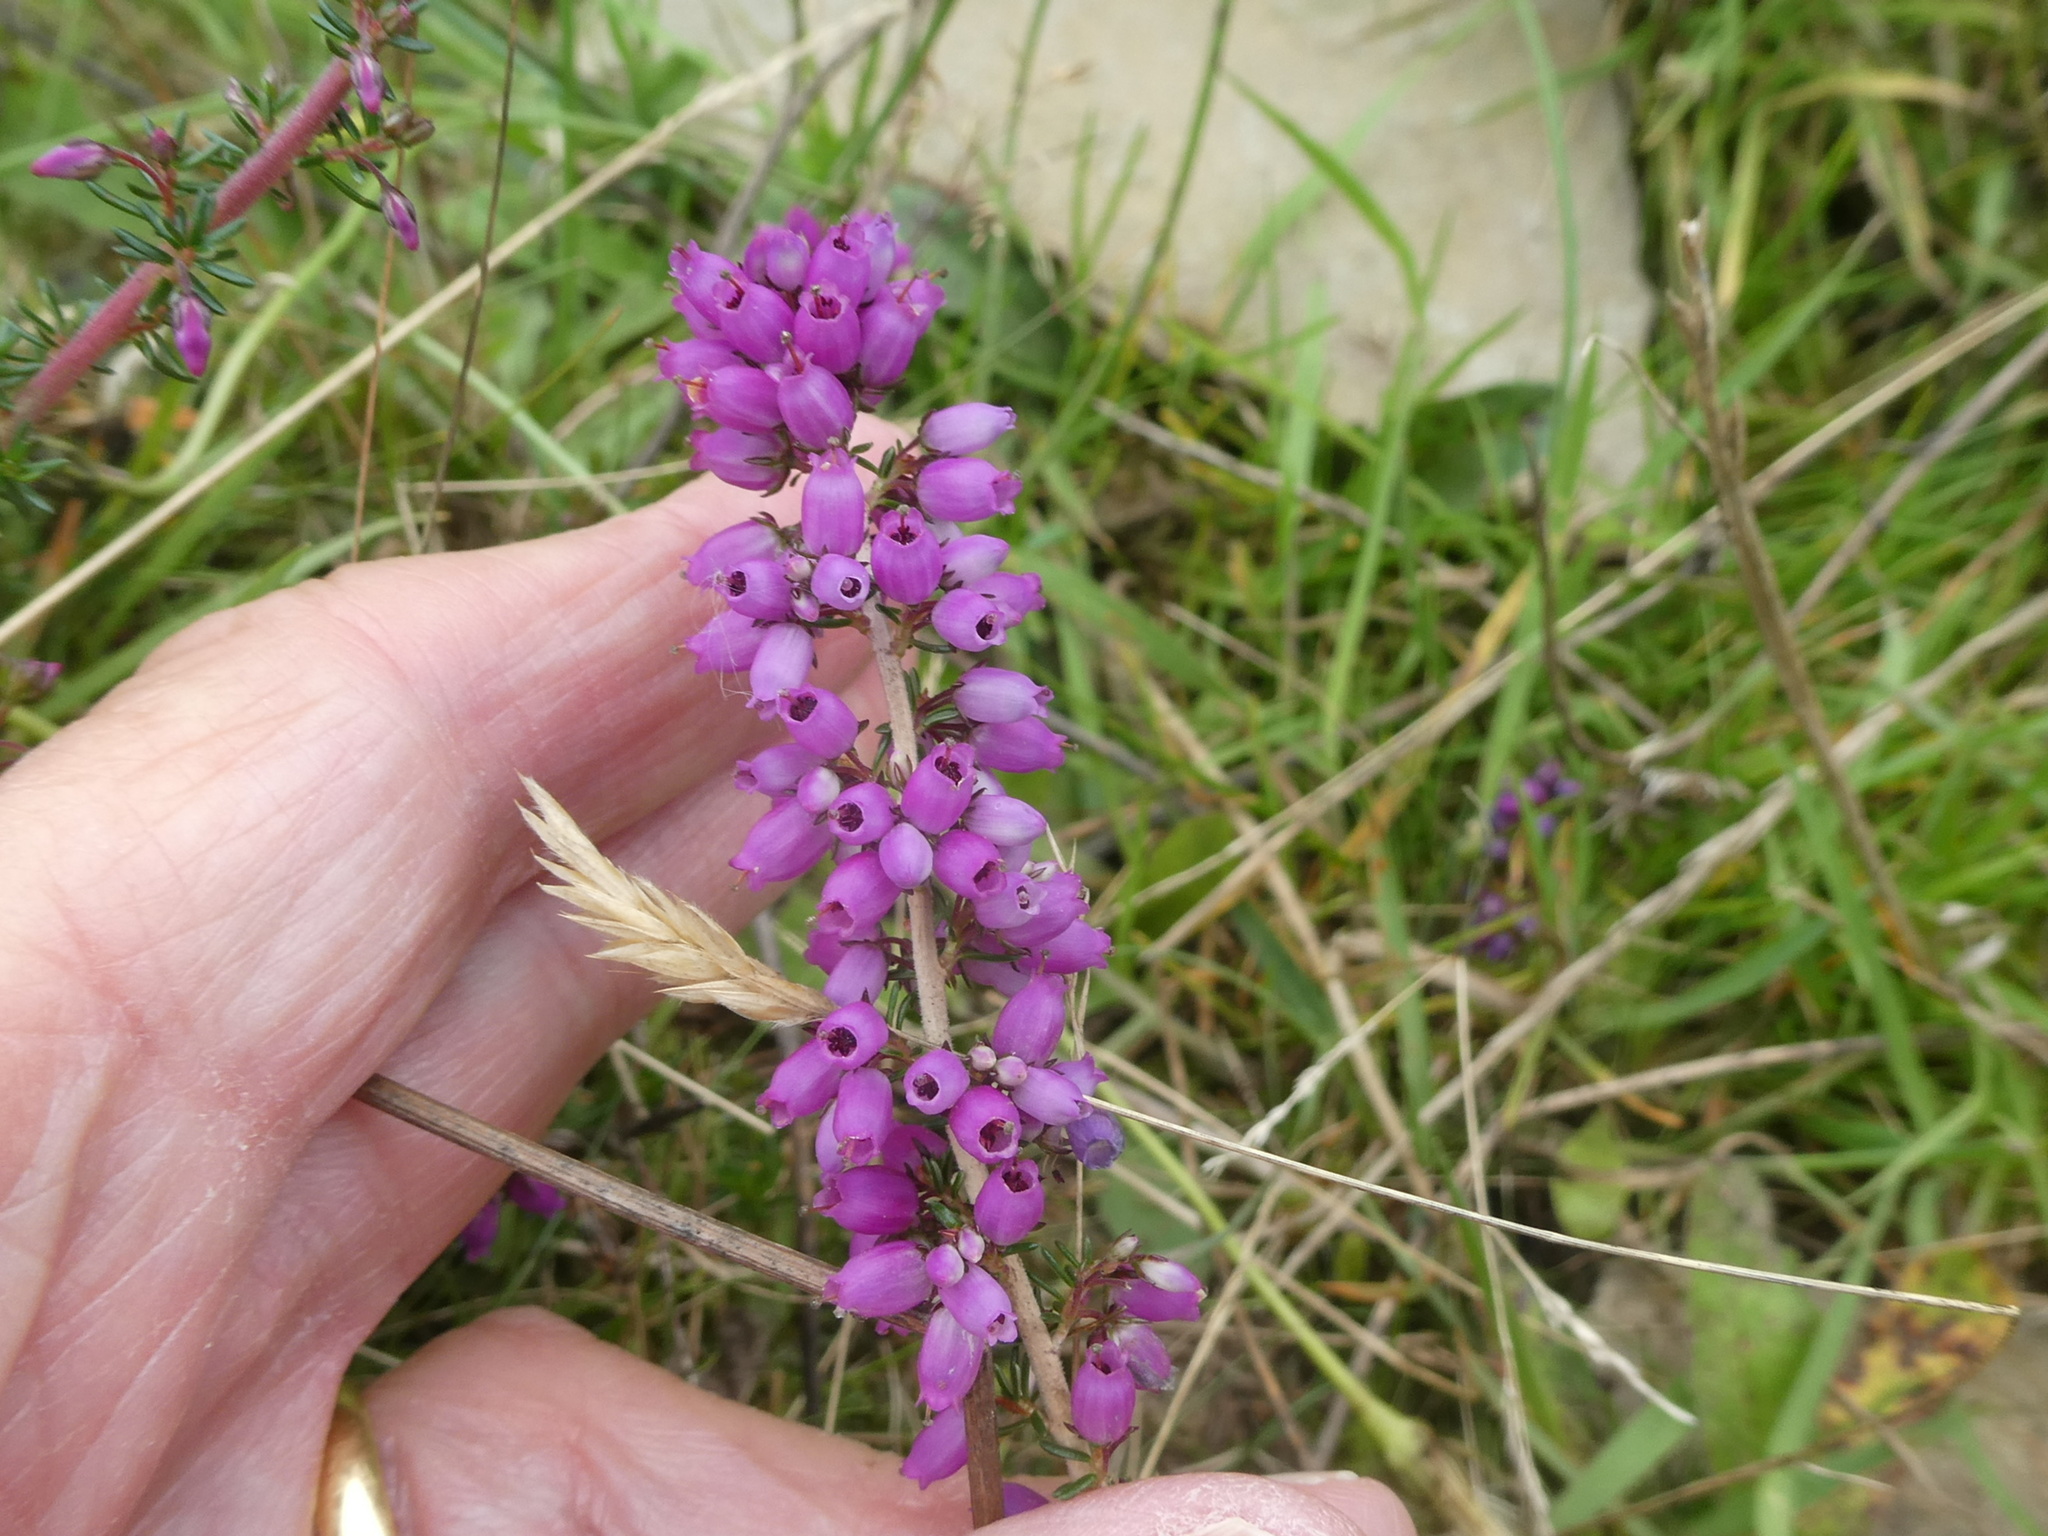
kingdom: Plantae
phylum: Tracheophyta
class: Magnoliopsida
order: Ericales
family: Ericaceae
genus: Erica
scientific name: Erica cinerea
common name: Bell heather
